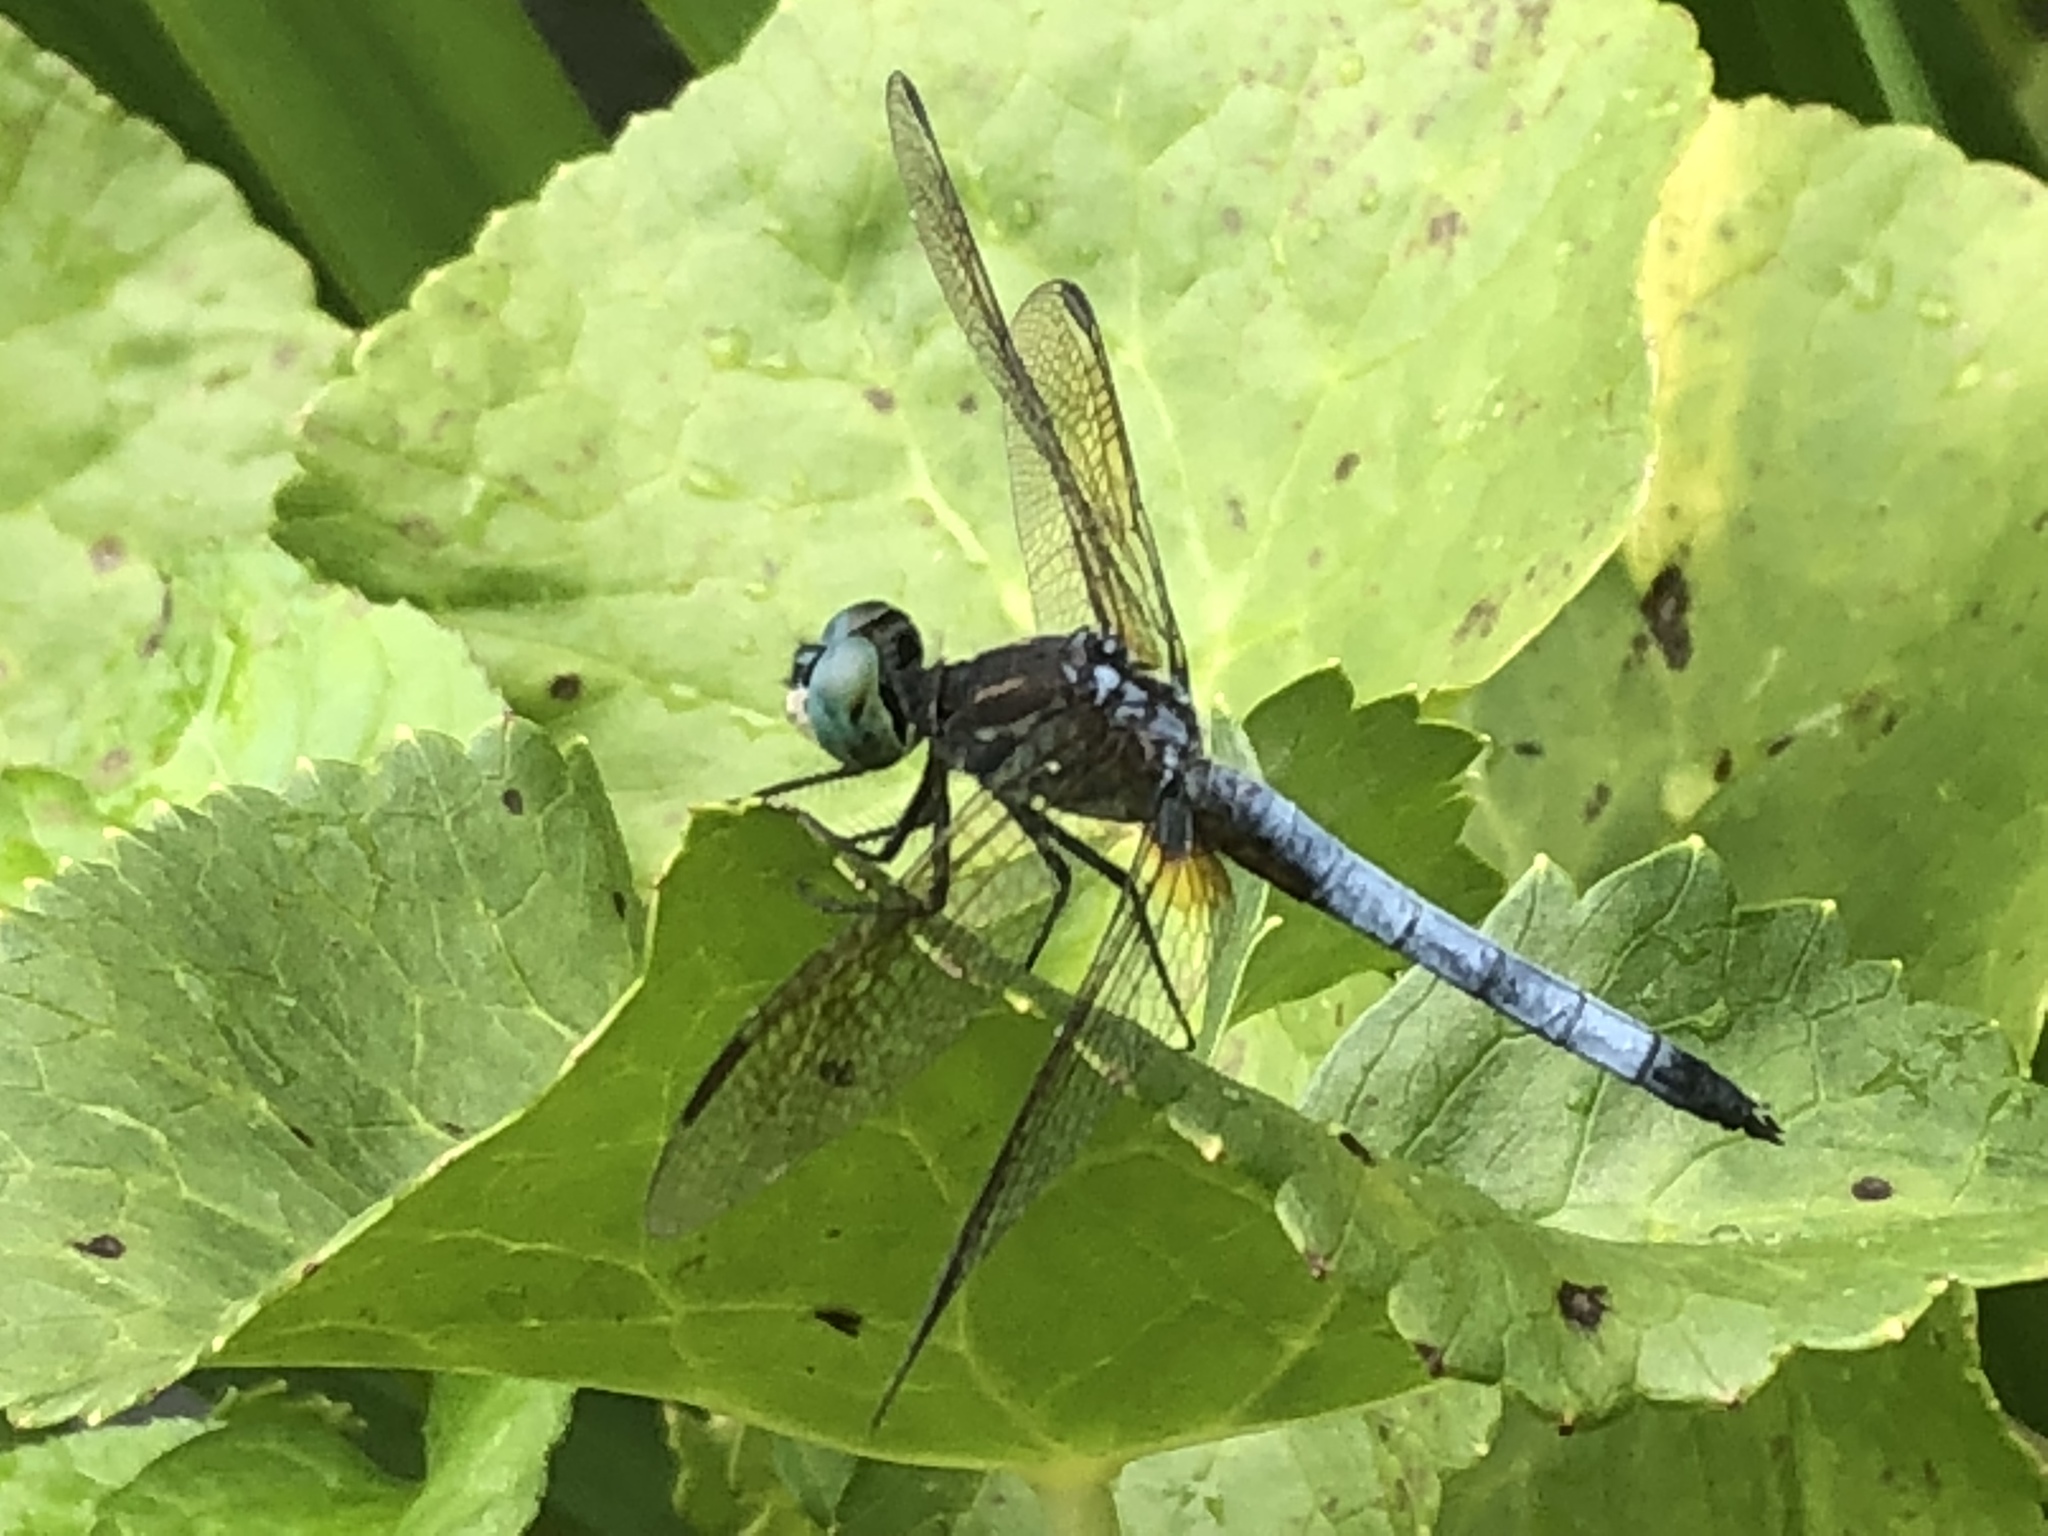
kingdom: Animalia
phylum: Arthropoda
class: Insecta
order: Odonata
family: Libellulidae
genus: Pachydiplax
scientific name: Pachydiplax longipennis
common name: Blue dasher
